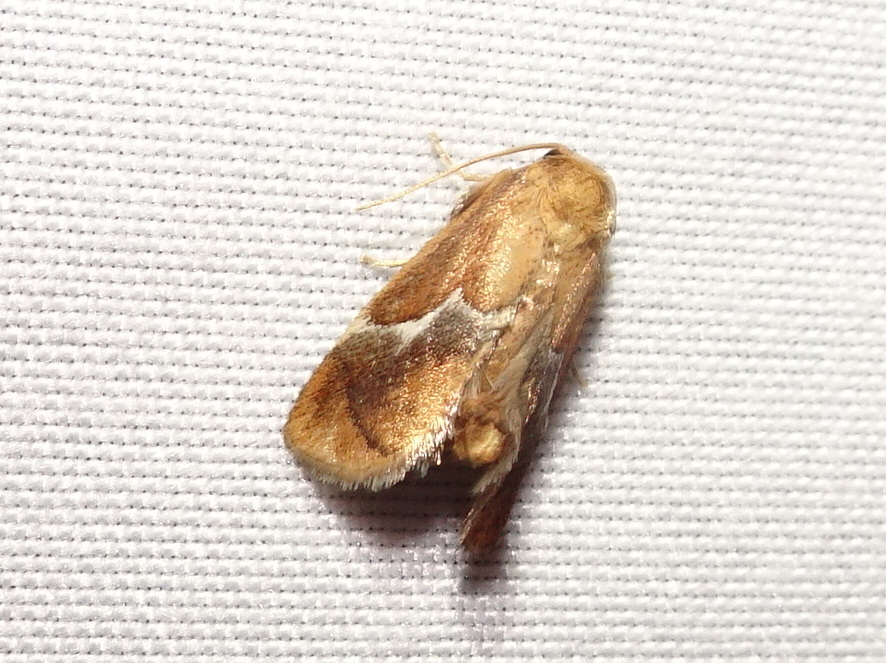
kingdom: Animalia
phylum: Arthropoda
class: Insecta
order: Lepidoptera
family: Limacodidae
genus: Lithacodes
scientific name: Lithacodes fasciola
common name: Yellow-shouldered slug moth
